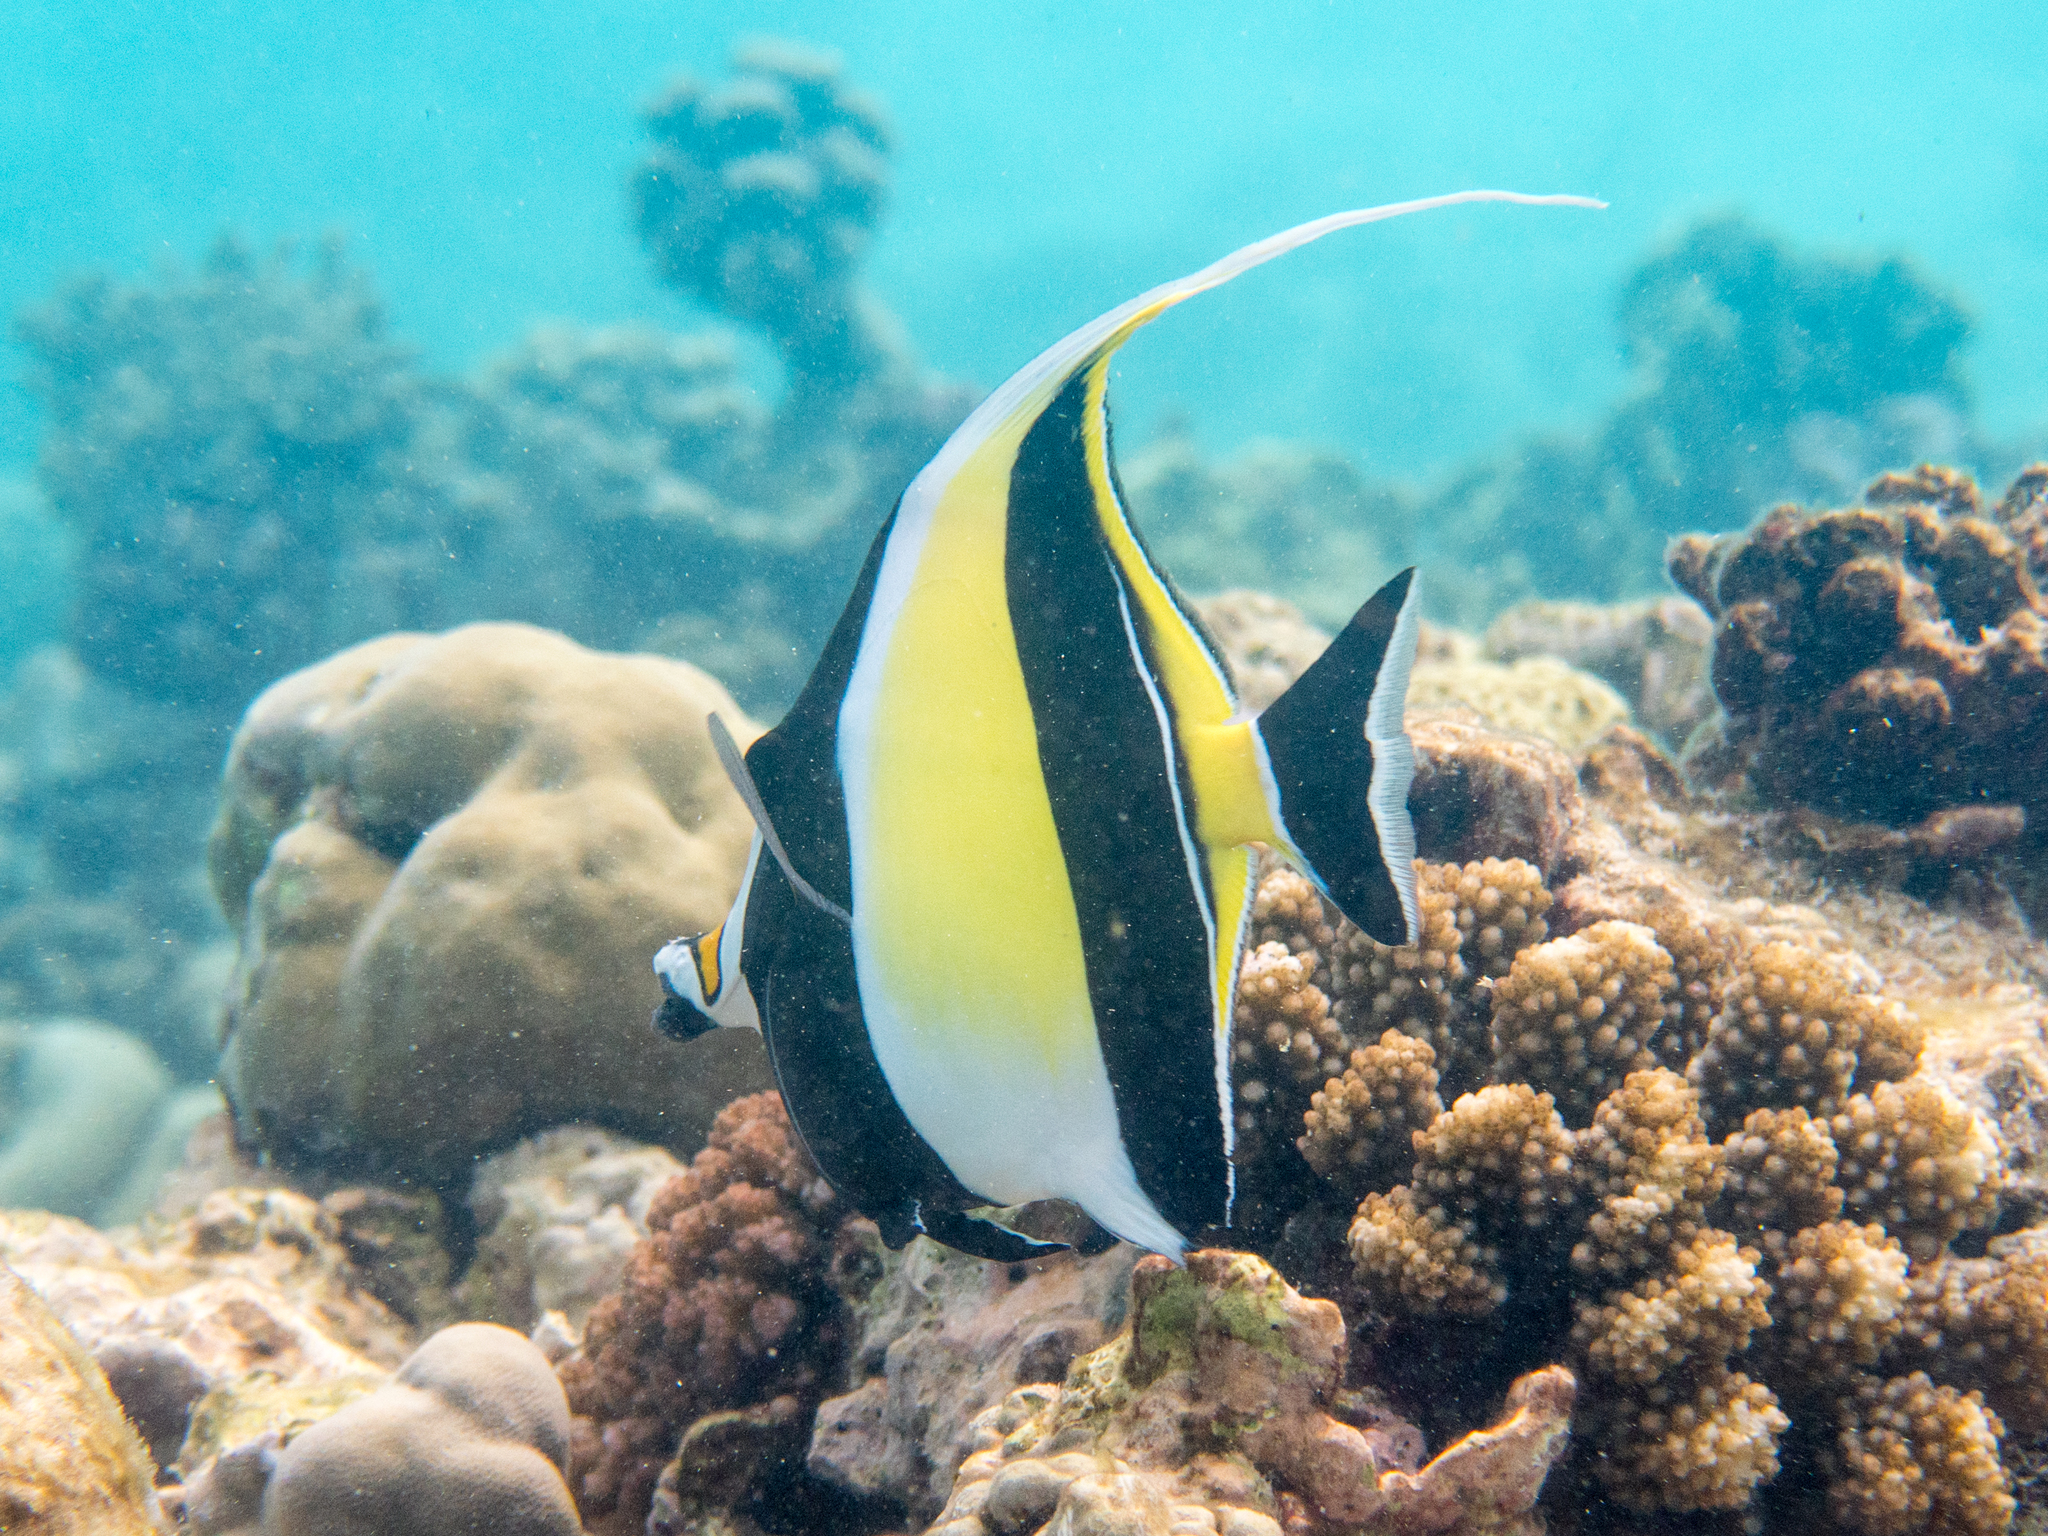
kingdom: Animalia
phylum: Chordata
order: Perciformes
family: Zanclidae
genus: Zanclus
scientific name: Zanclus cornutus
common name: Moorish idol
